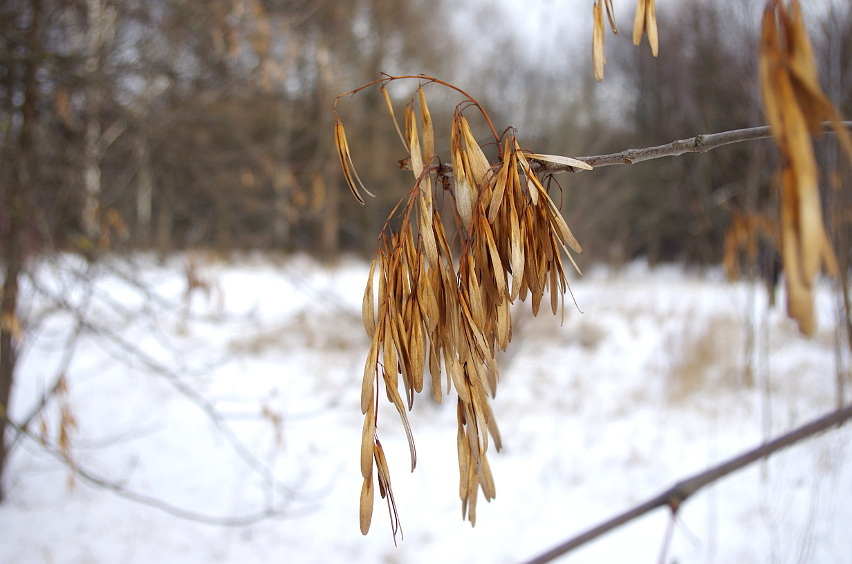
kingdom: Plantae
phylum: Tracheophyta
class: Magnoliopsida
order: Lamiales
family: Oleaceae
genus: Fraxinus
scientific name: Fraxinus pennsylvanica
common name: Green ash
